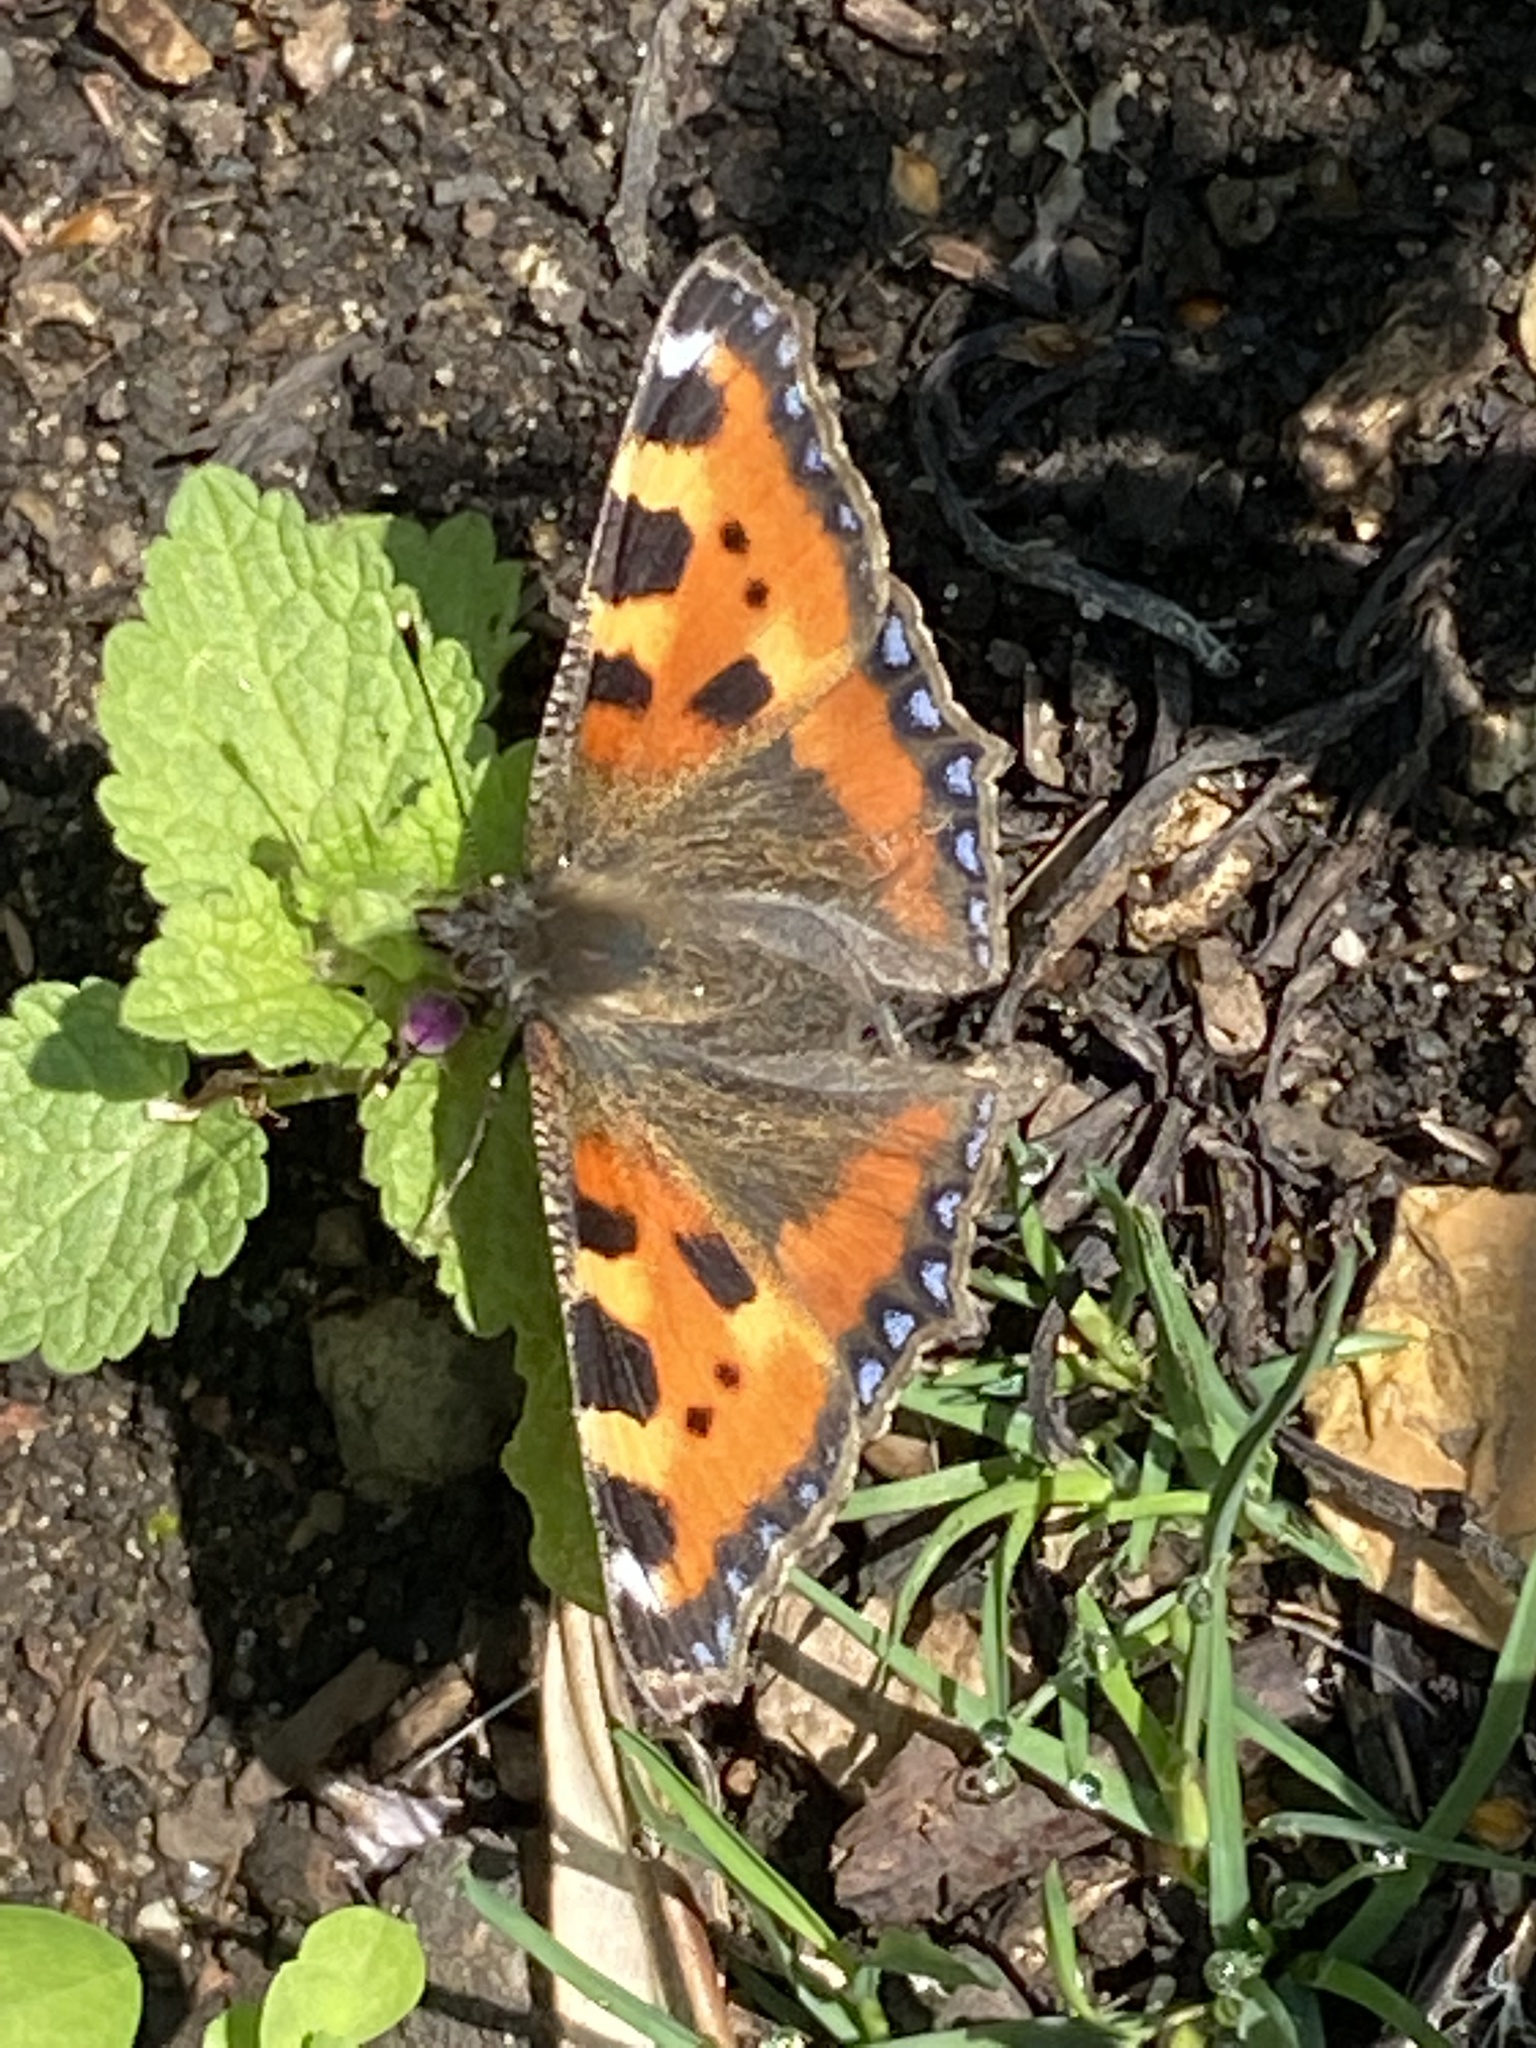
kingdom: Animalia
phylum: Arthropoda
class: Insecta
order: Lepidoptera
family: Nymphalidae
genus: Aglais
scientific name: Aglais urticae
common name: Small tortoiseshell
